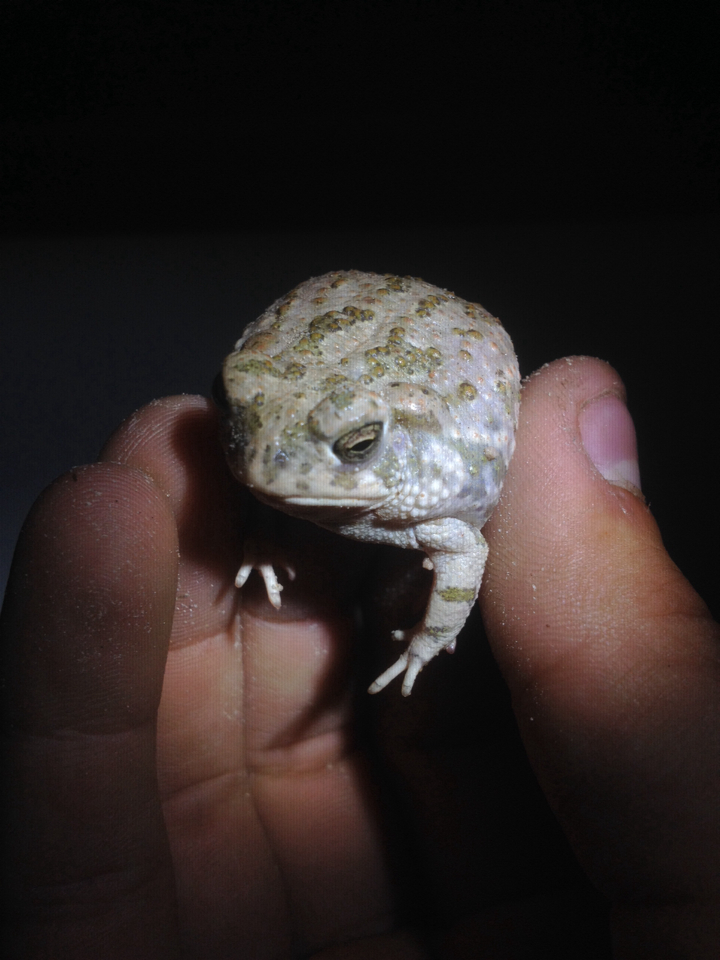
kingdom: Animalia
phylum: Chordata
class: Amphibia
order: Anura
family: Bufonidae
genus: Anaxyrus
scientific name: Anaxyrus speciosus
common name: Texas toad
